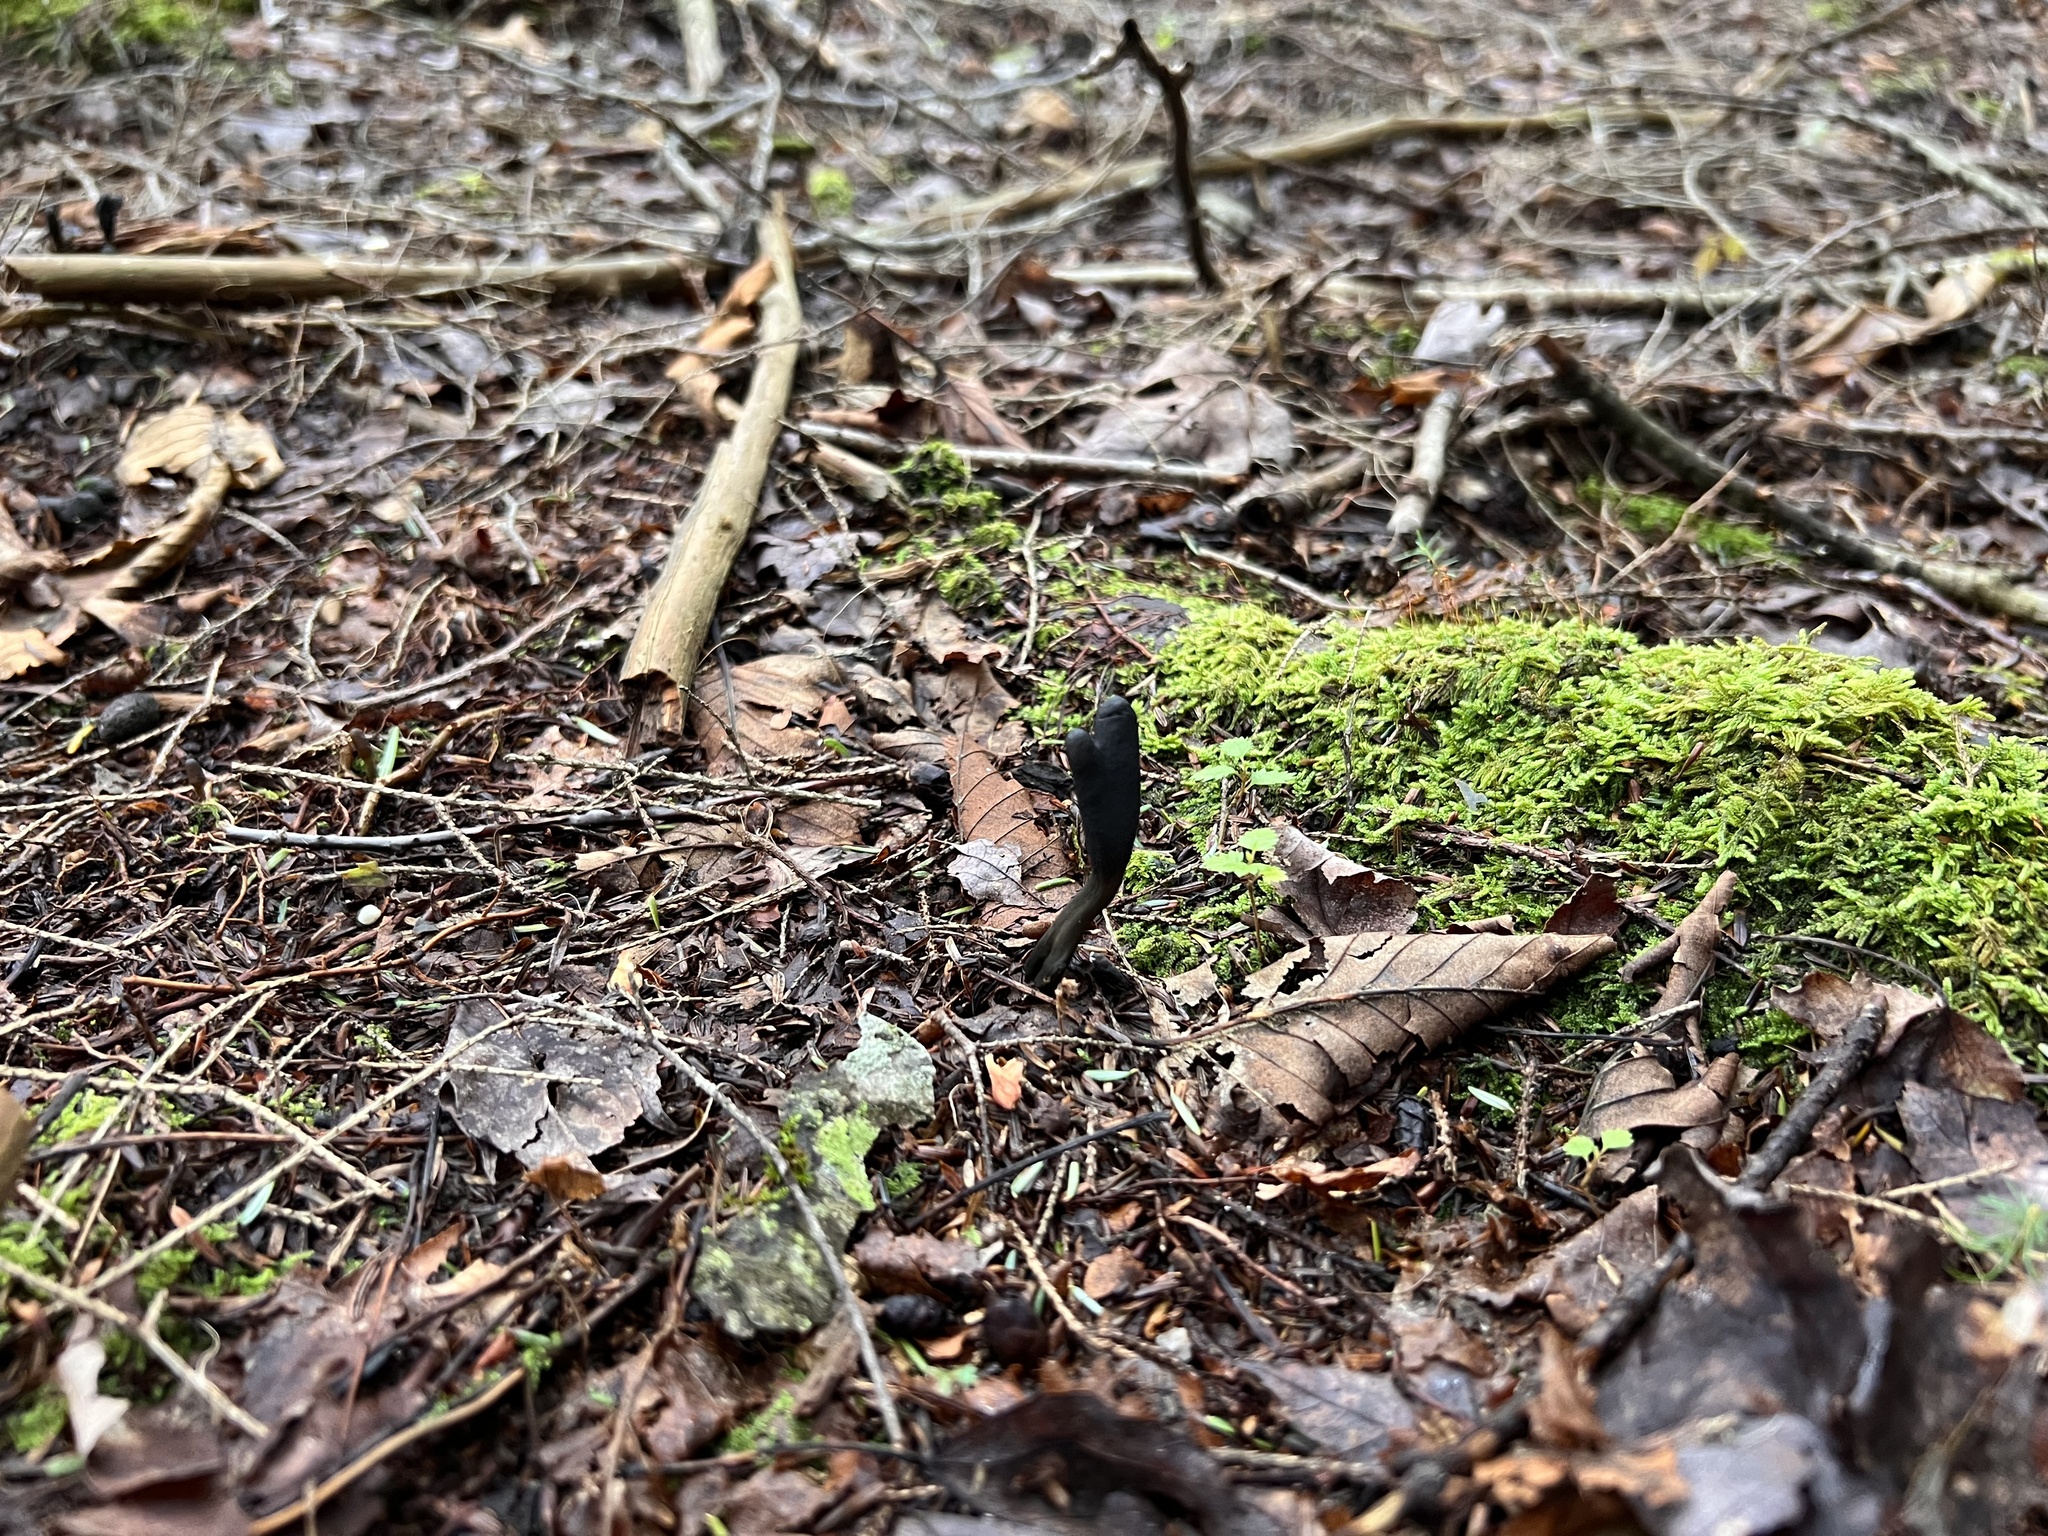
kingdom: Fungi
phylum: Ascomycota
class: Sordariomycetes
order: Hypocreales
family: Ophiocordycipitaceae
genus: Tolypocladium
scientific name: Tolypocladium ophioglossoides
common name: Snaketongue truffleclub
